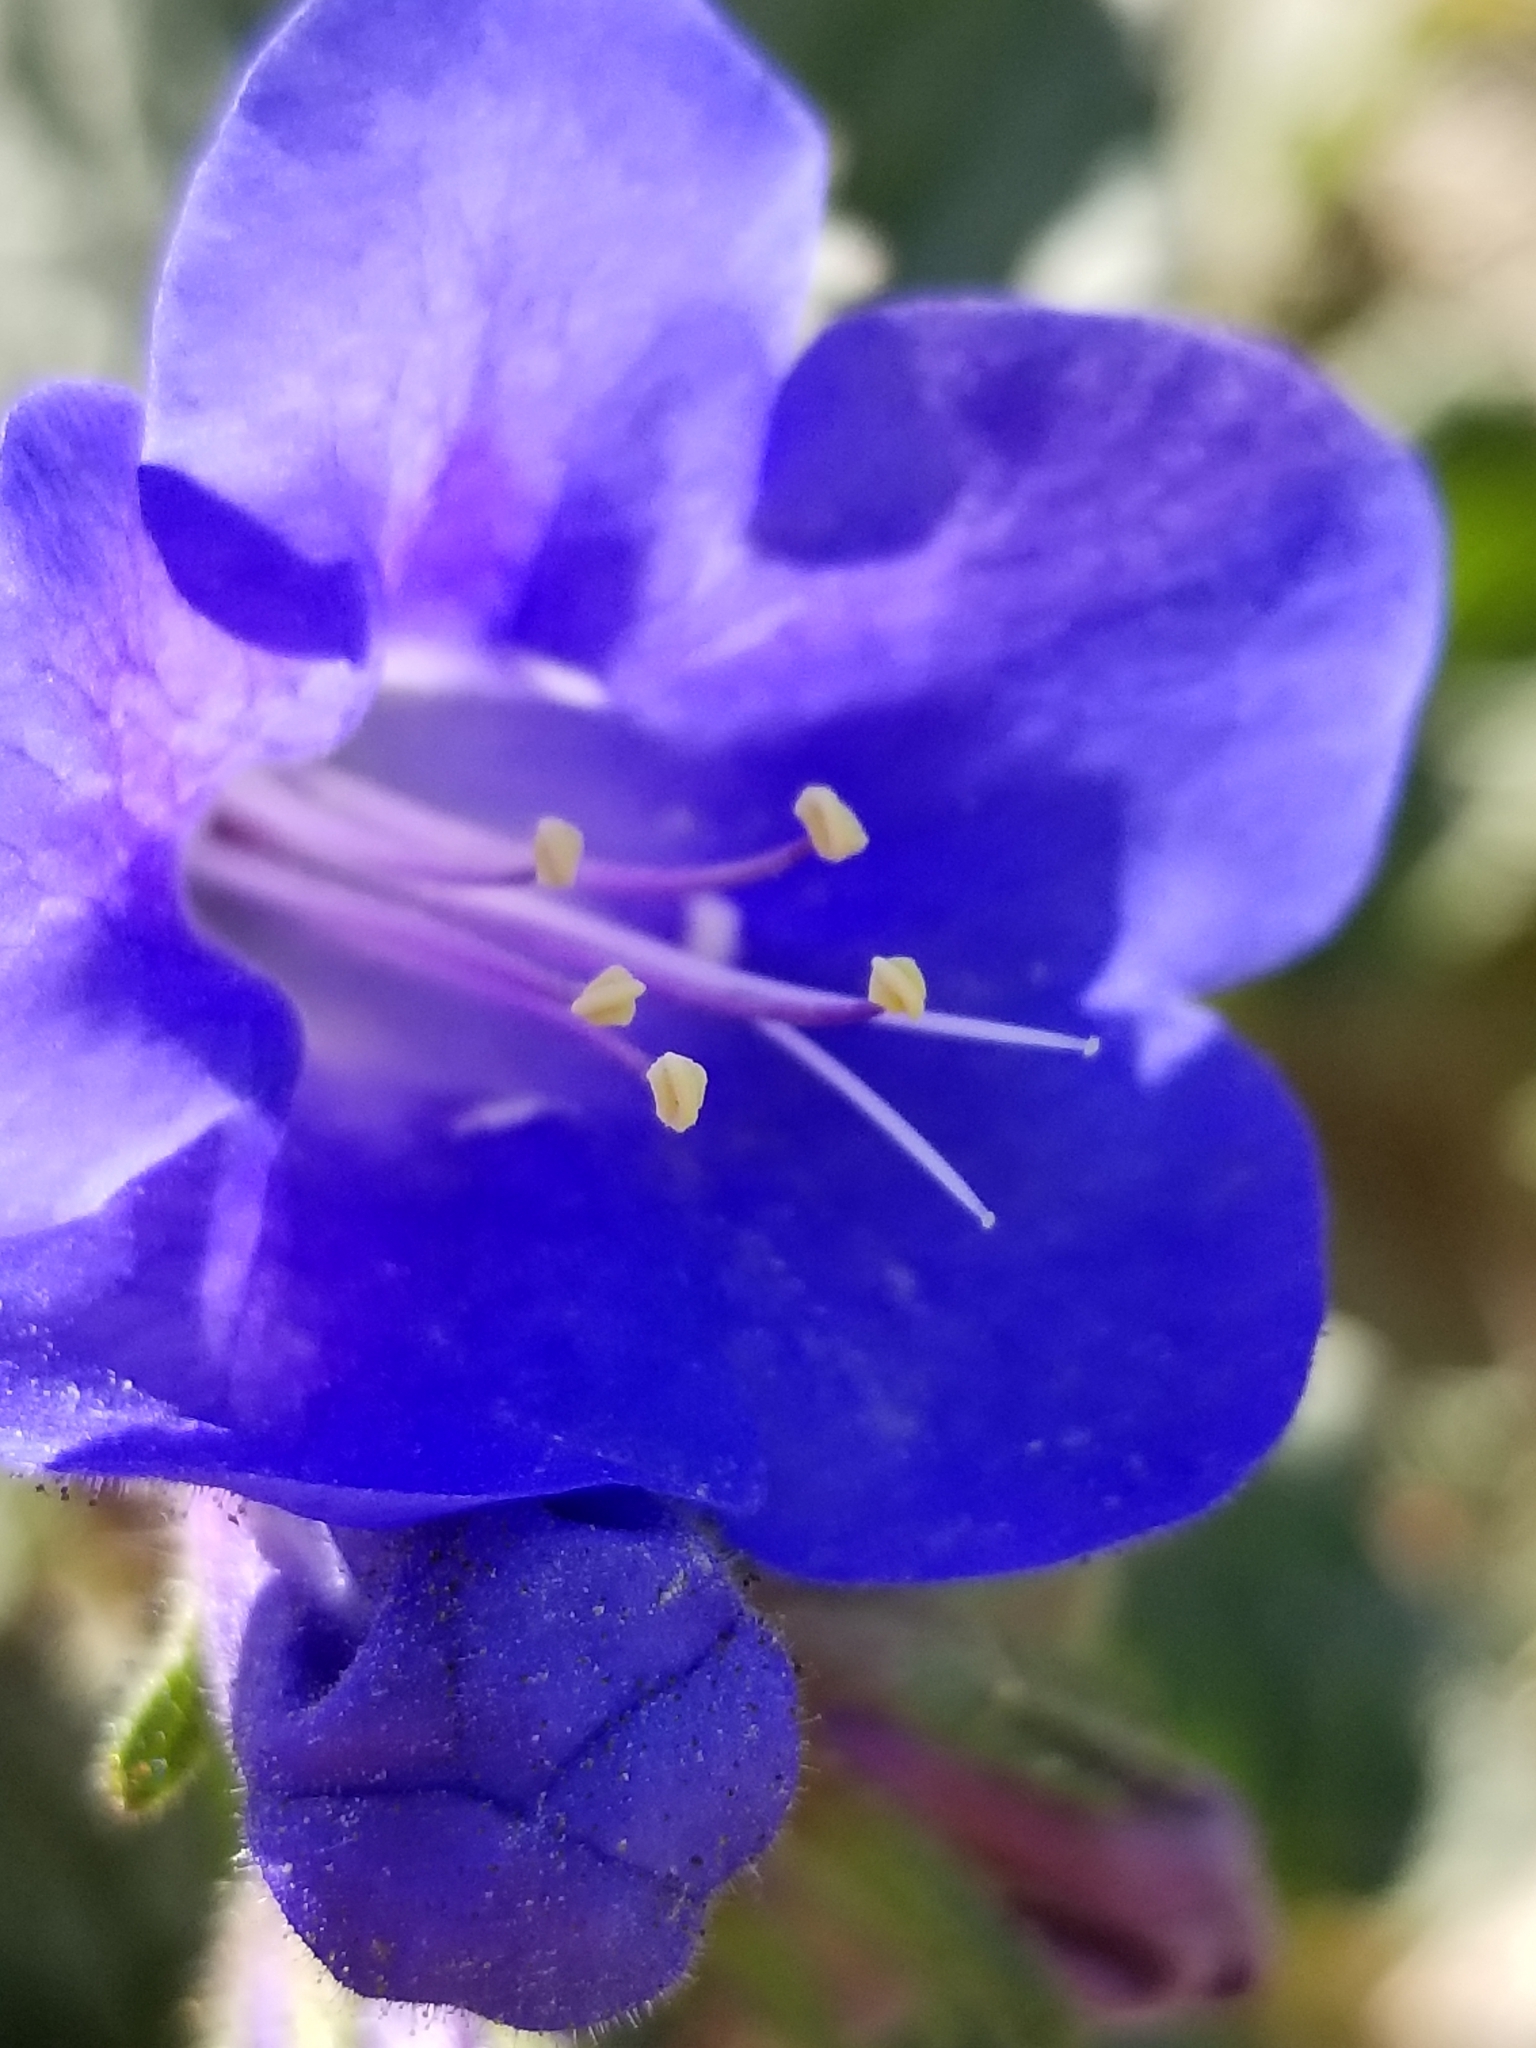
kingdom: Plantae
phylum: Tracheophyta
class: Magnoliopsida
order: Boraginales
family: Hydrophyllaceae
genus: Phacelia
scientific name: Phacelia campanularia
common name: California bluebell
